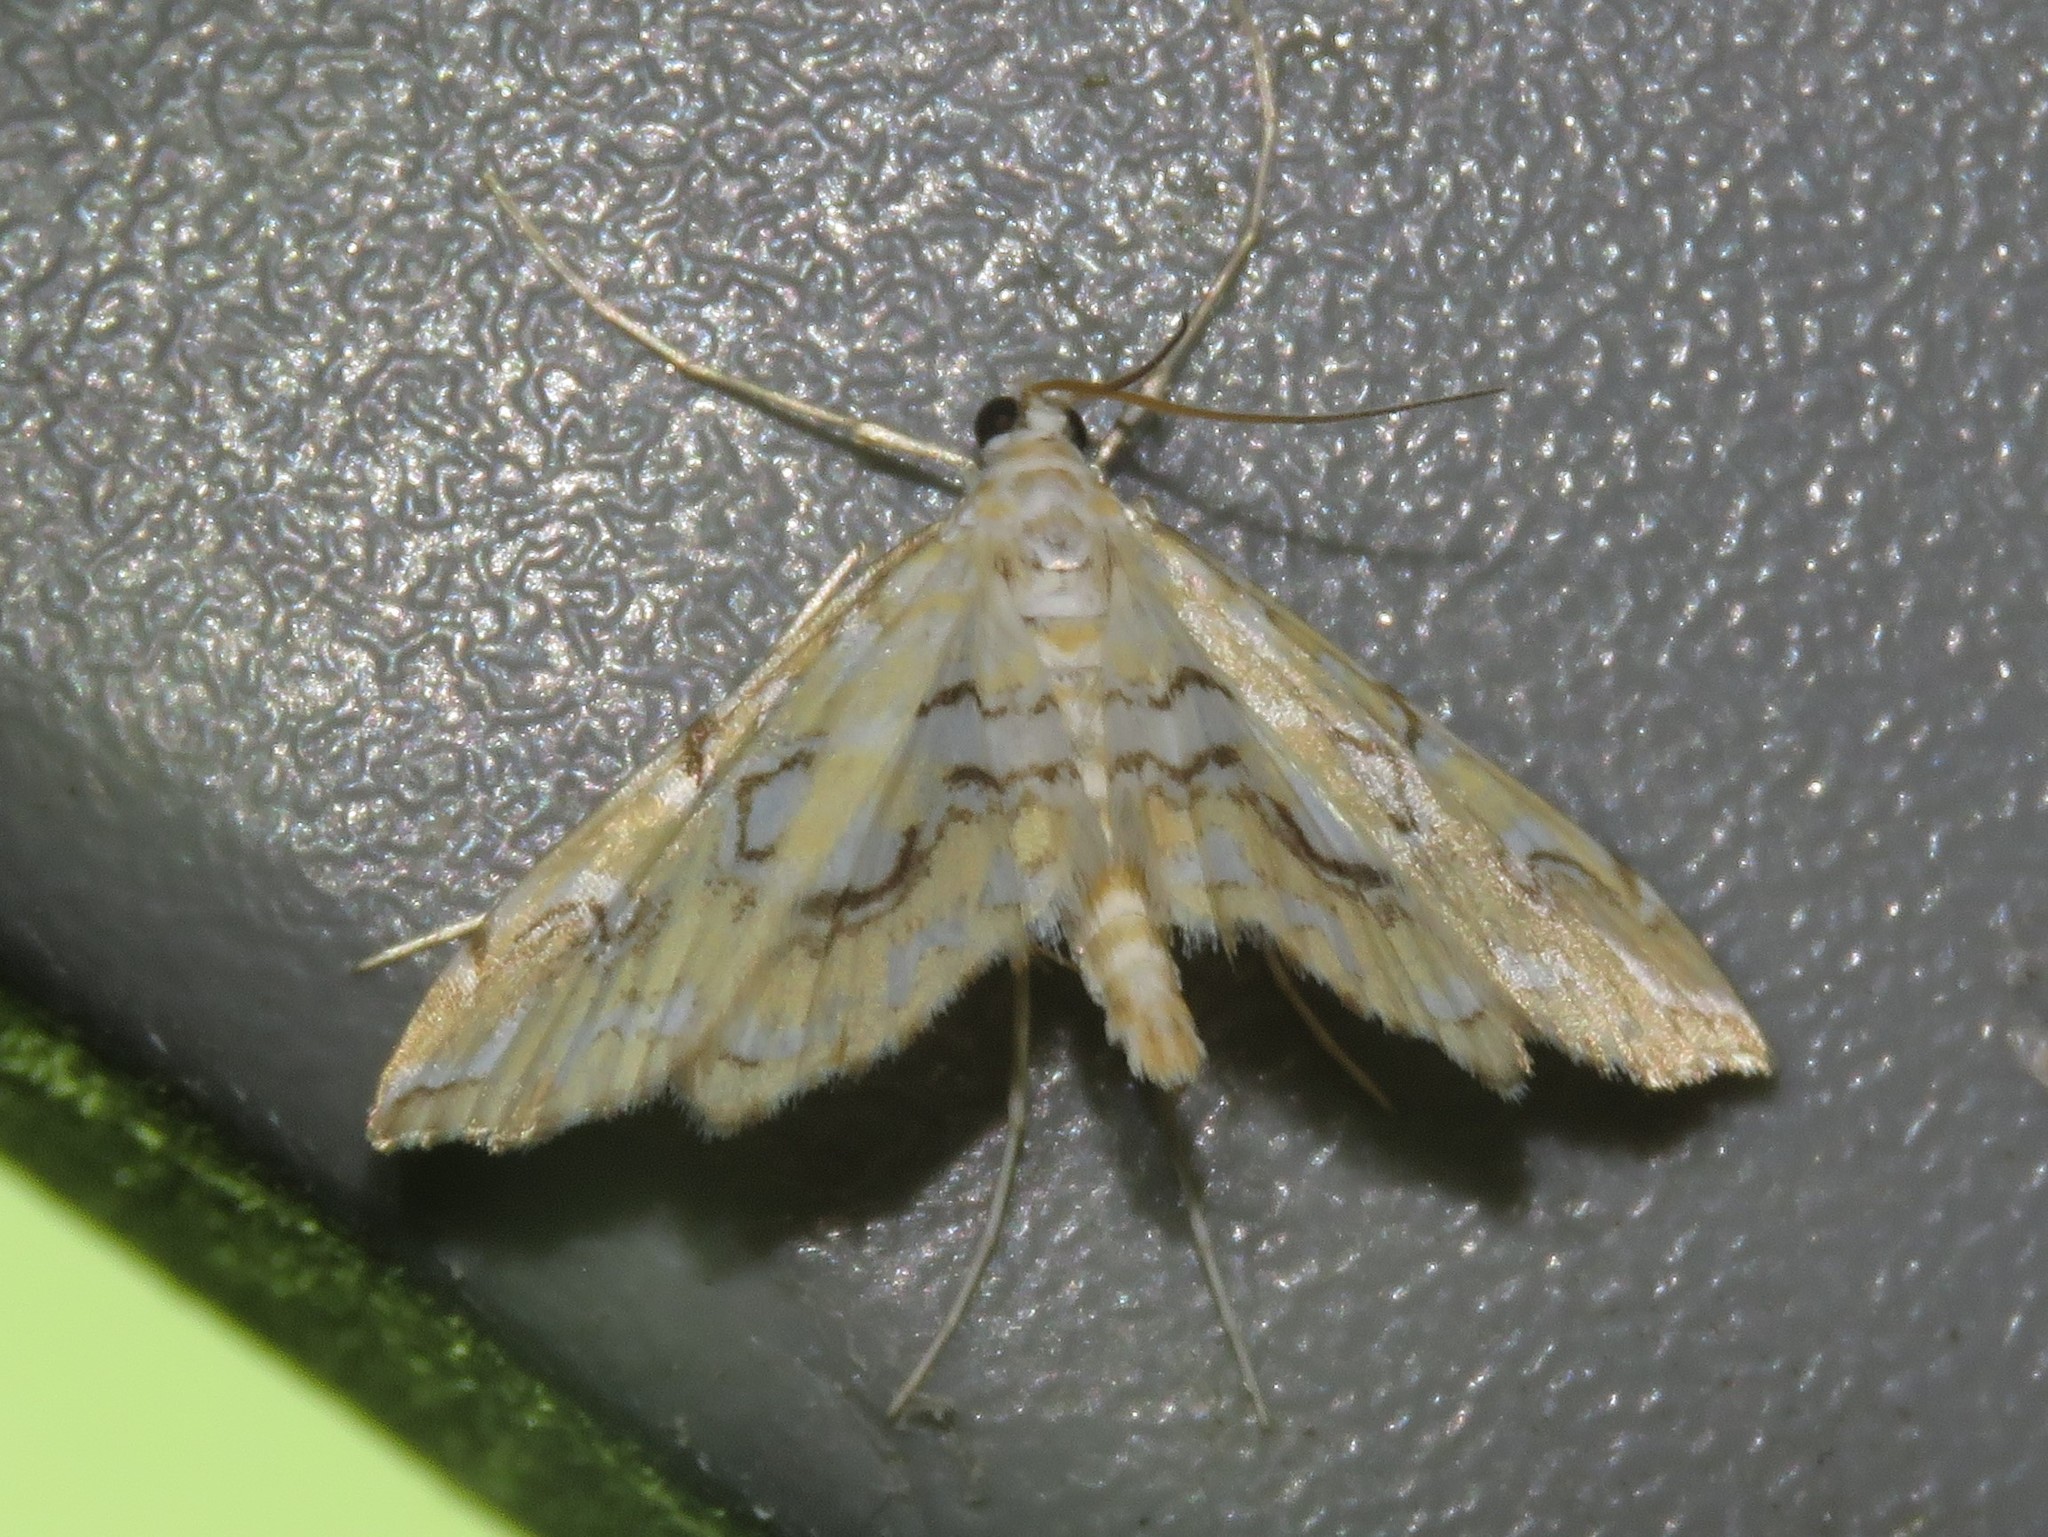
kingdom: Animalia
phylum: Arthropoda
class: Insecta
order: Lepidoptera
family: Crambidae
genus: Elophila
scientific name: Elophila icciusalis
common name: Pondside pyralid moth
